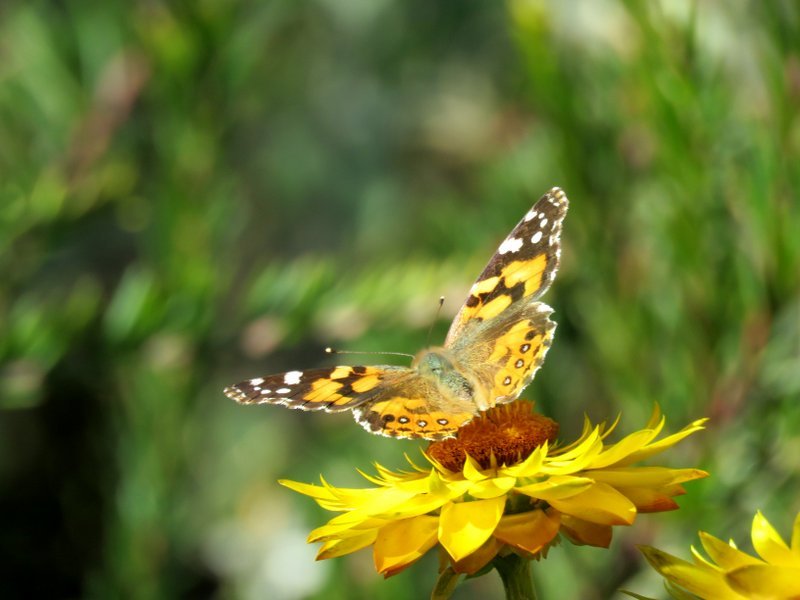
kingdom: Animalia
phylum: Arthropoda
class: Insecta
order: Lepidoptera
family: Nymphalidae
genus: Vanessa
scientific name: Vanessa kershawi
